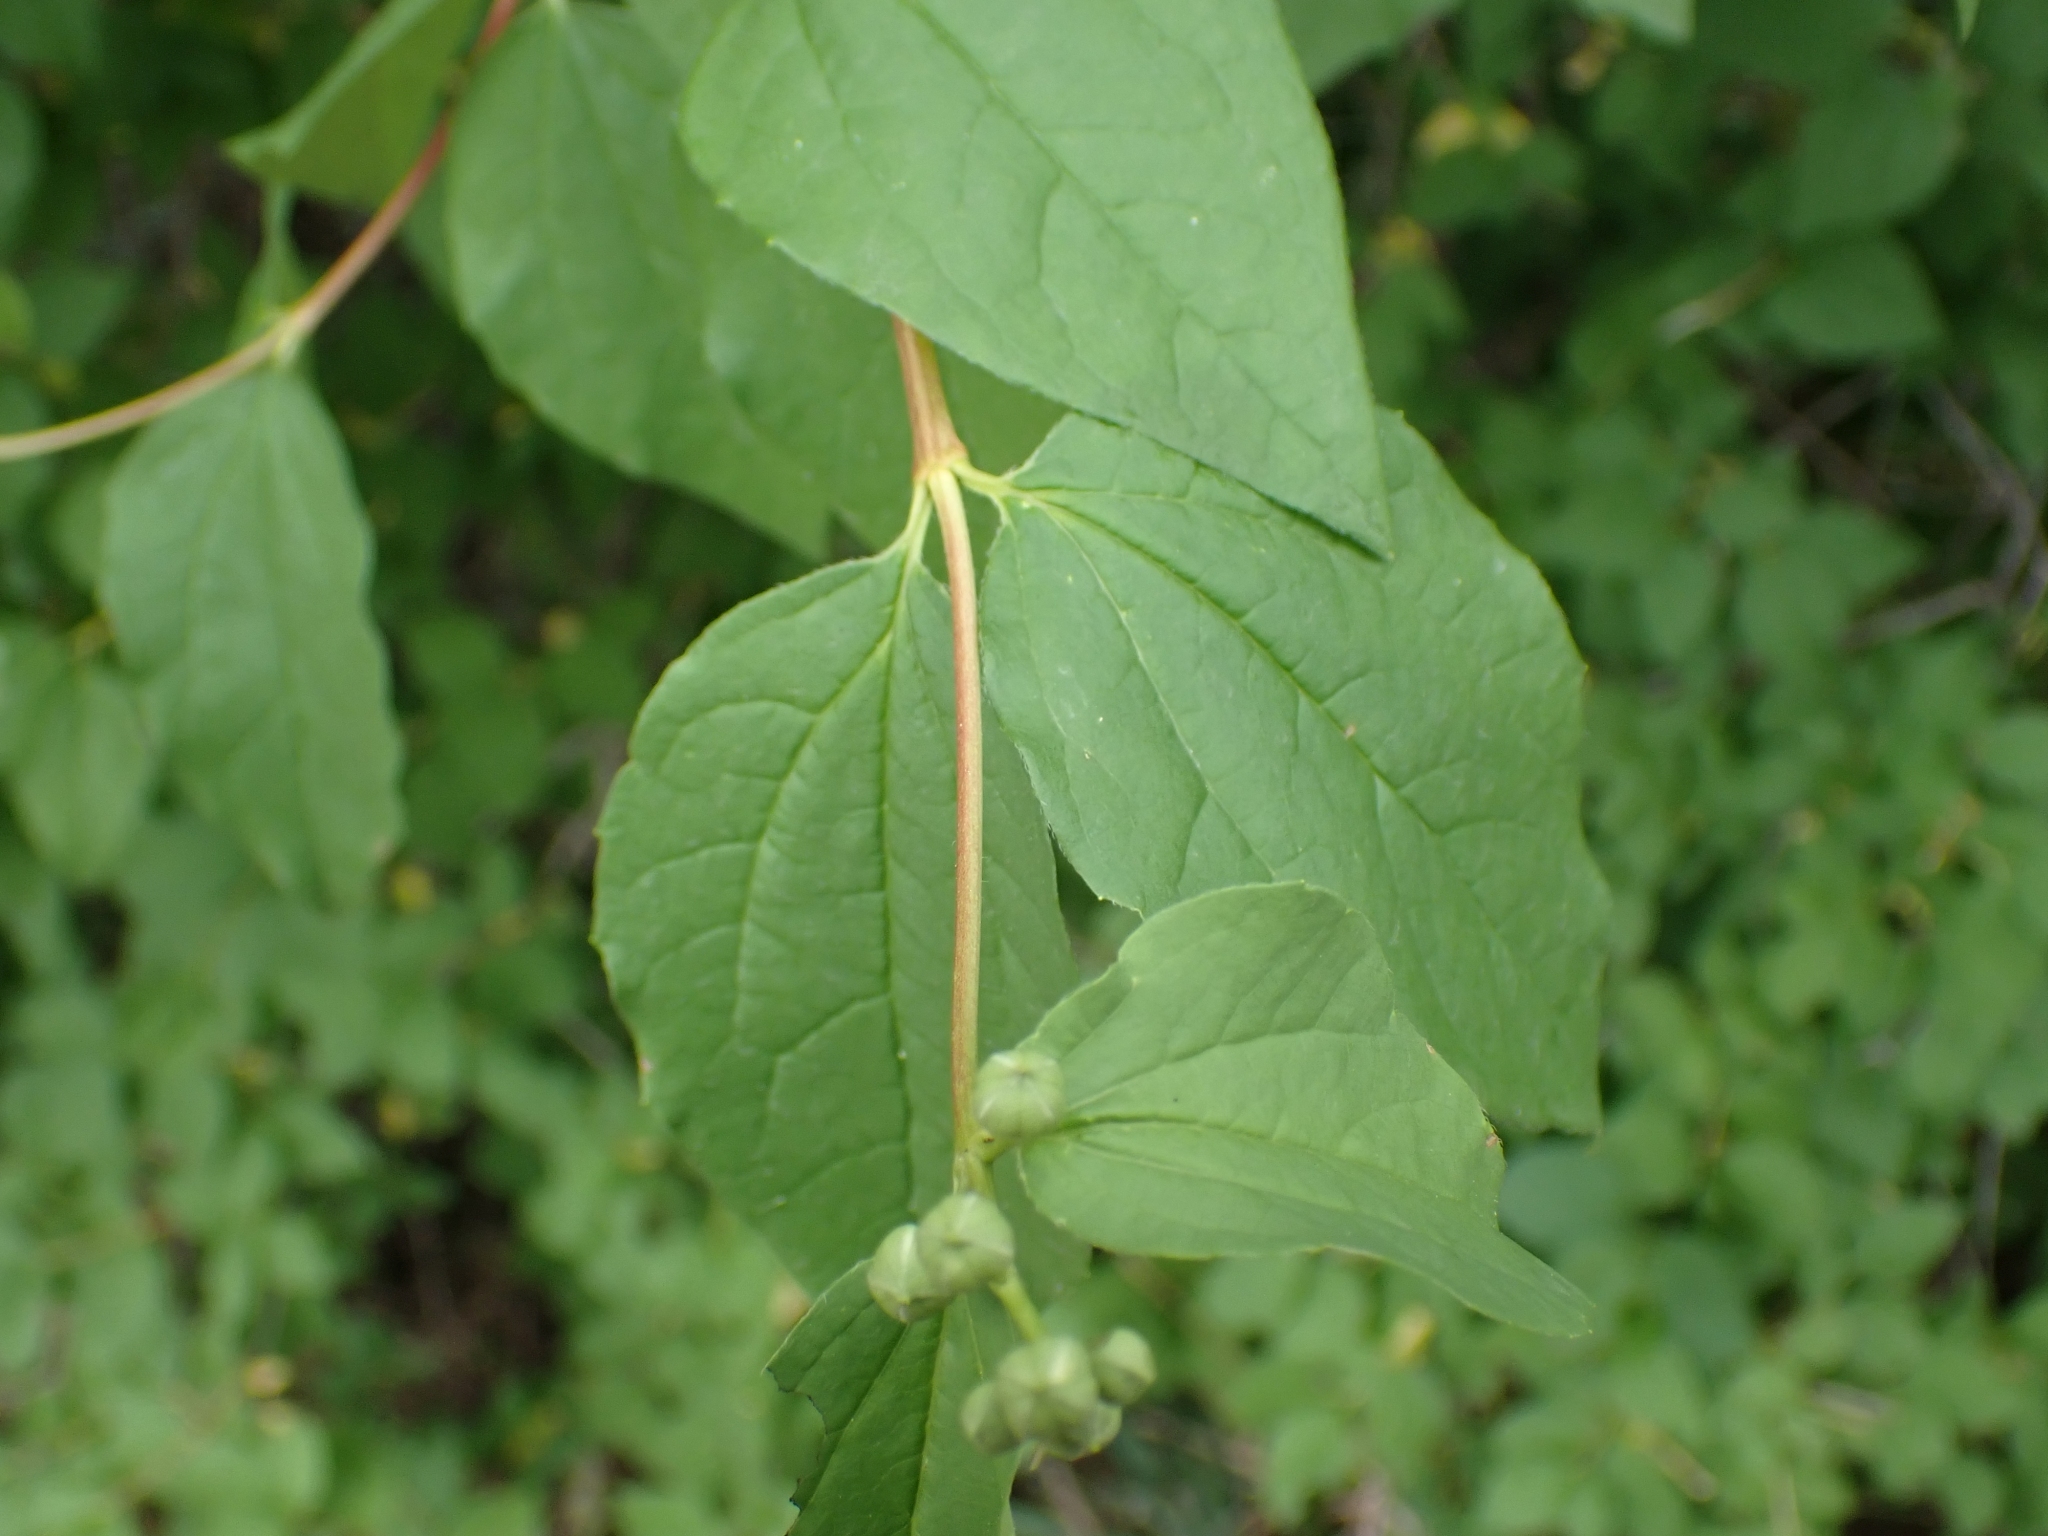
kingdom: Plantae
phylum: Tracheophyta
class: Magnoliopsida
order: Cornales
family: Hydrangeaceae
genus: Philadelphus
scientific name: Philadelphus lewisii
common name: Lewis's mock orange
